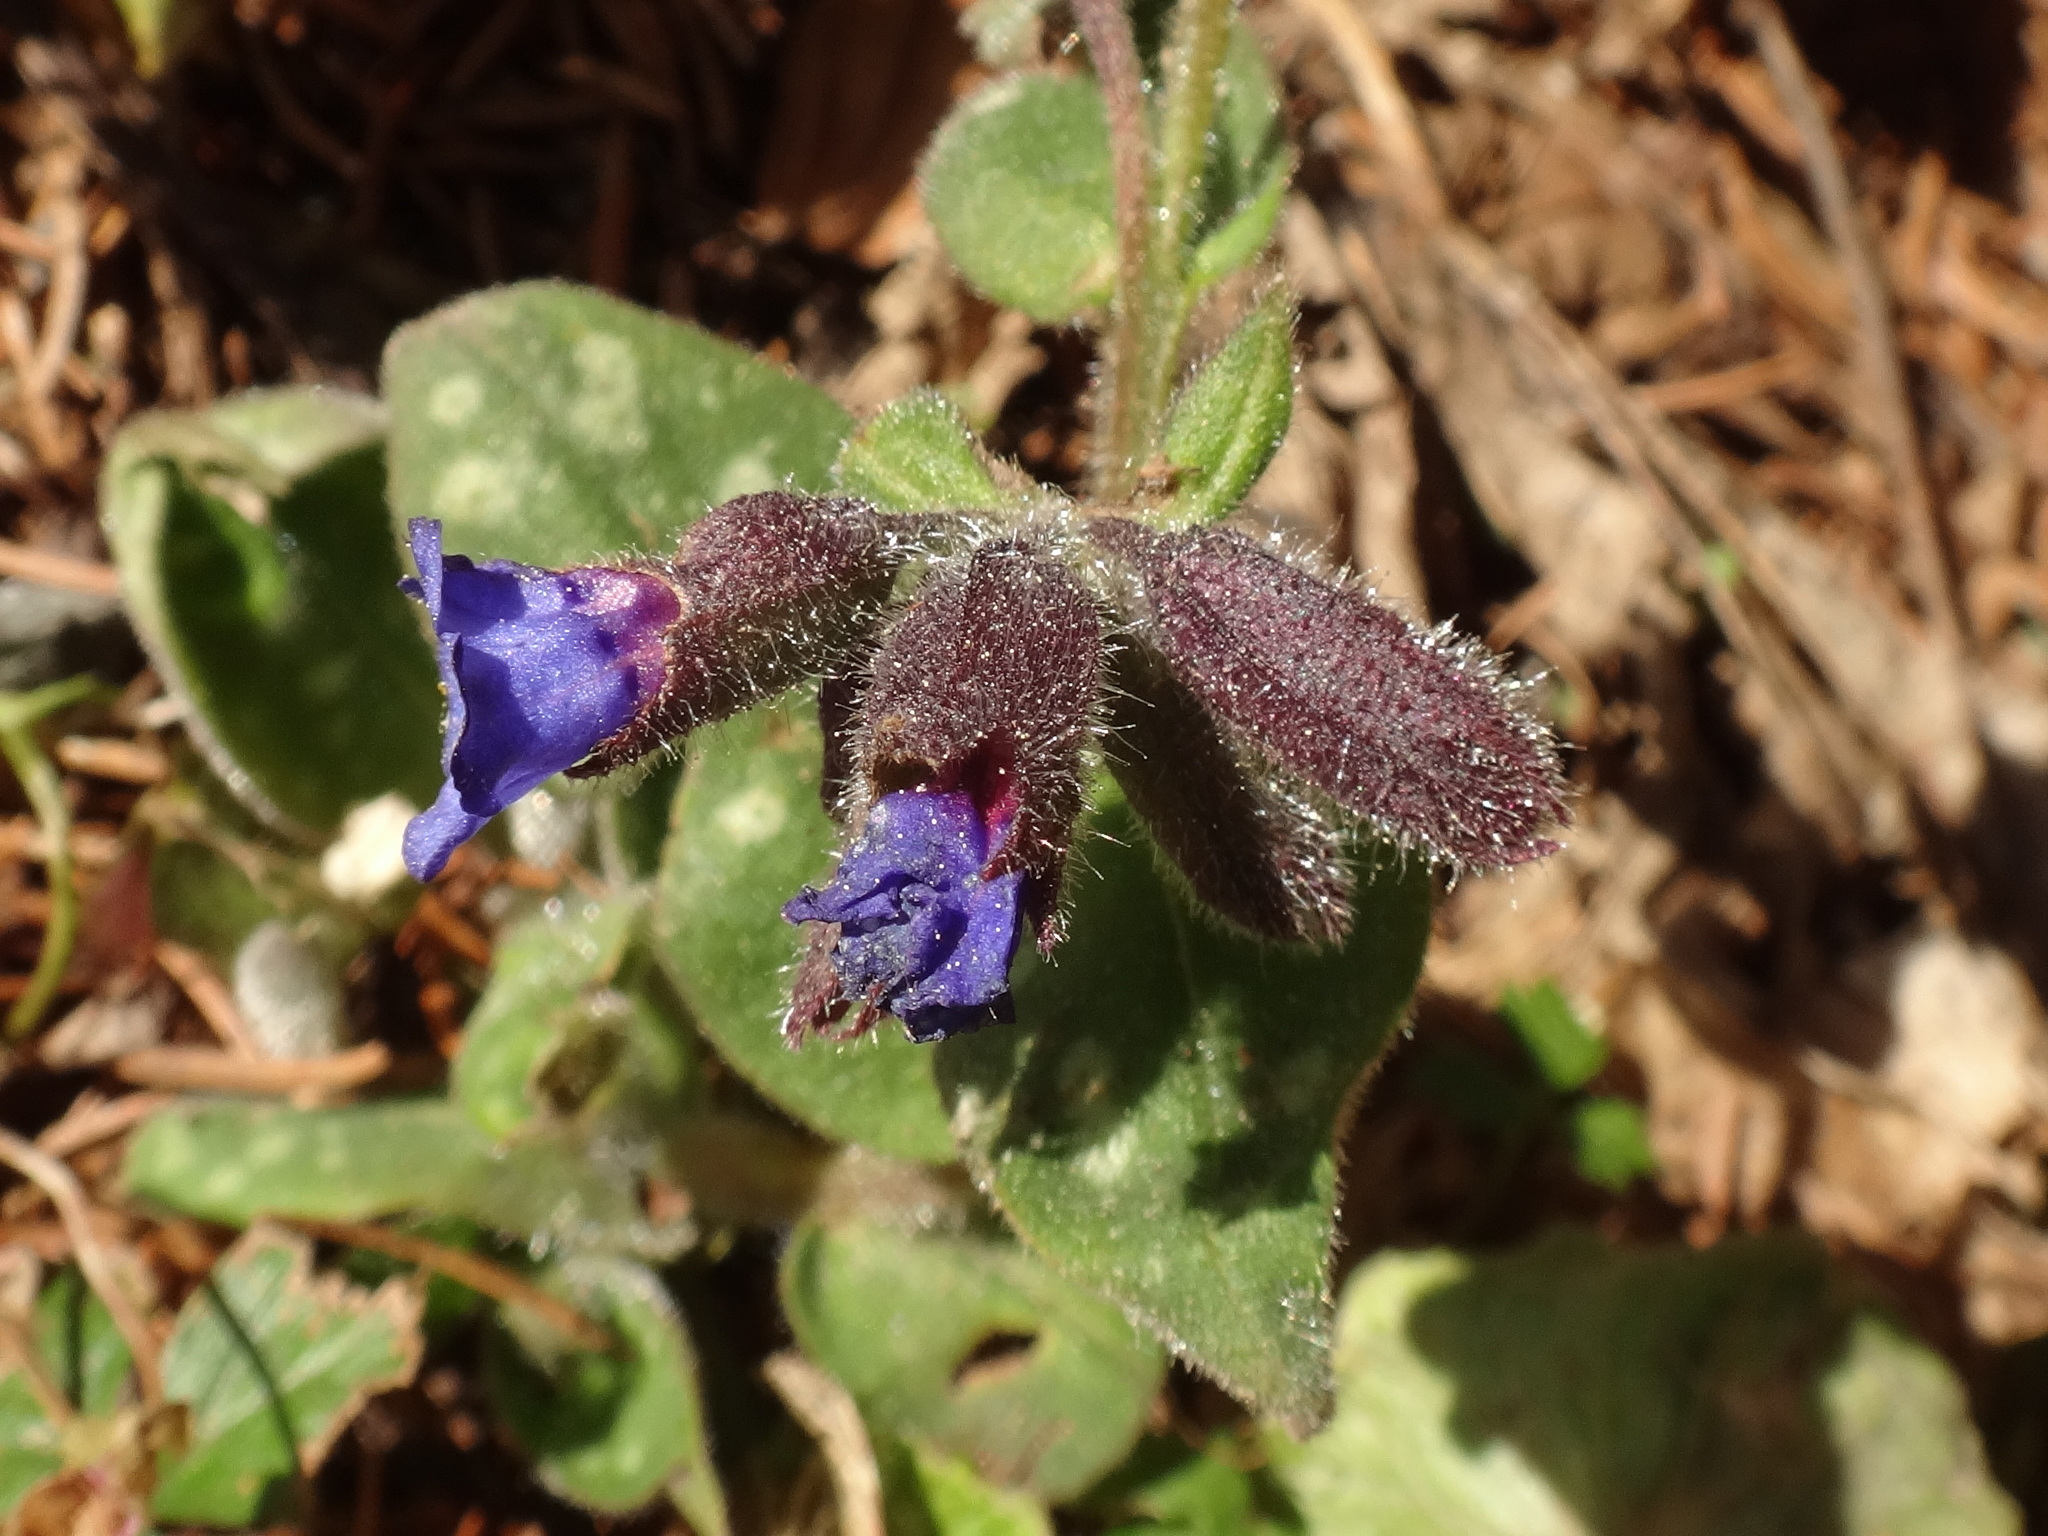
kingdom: Plantae
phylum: Tracheophyta
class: Magnoliopsida
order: Boraginales
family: Boraginaceae
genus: Pulmonaria
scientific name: Pulmonaria stiriaca
